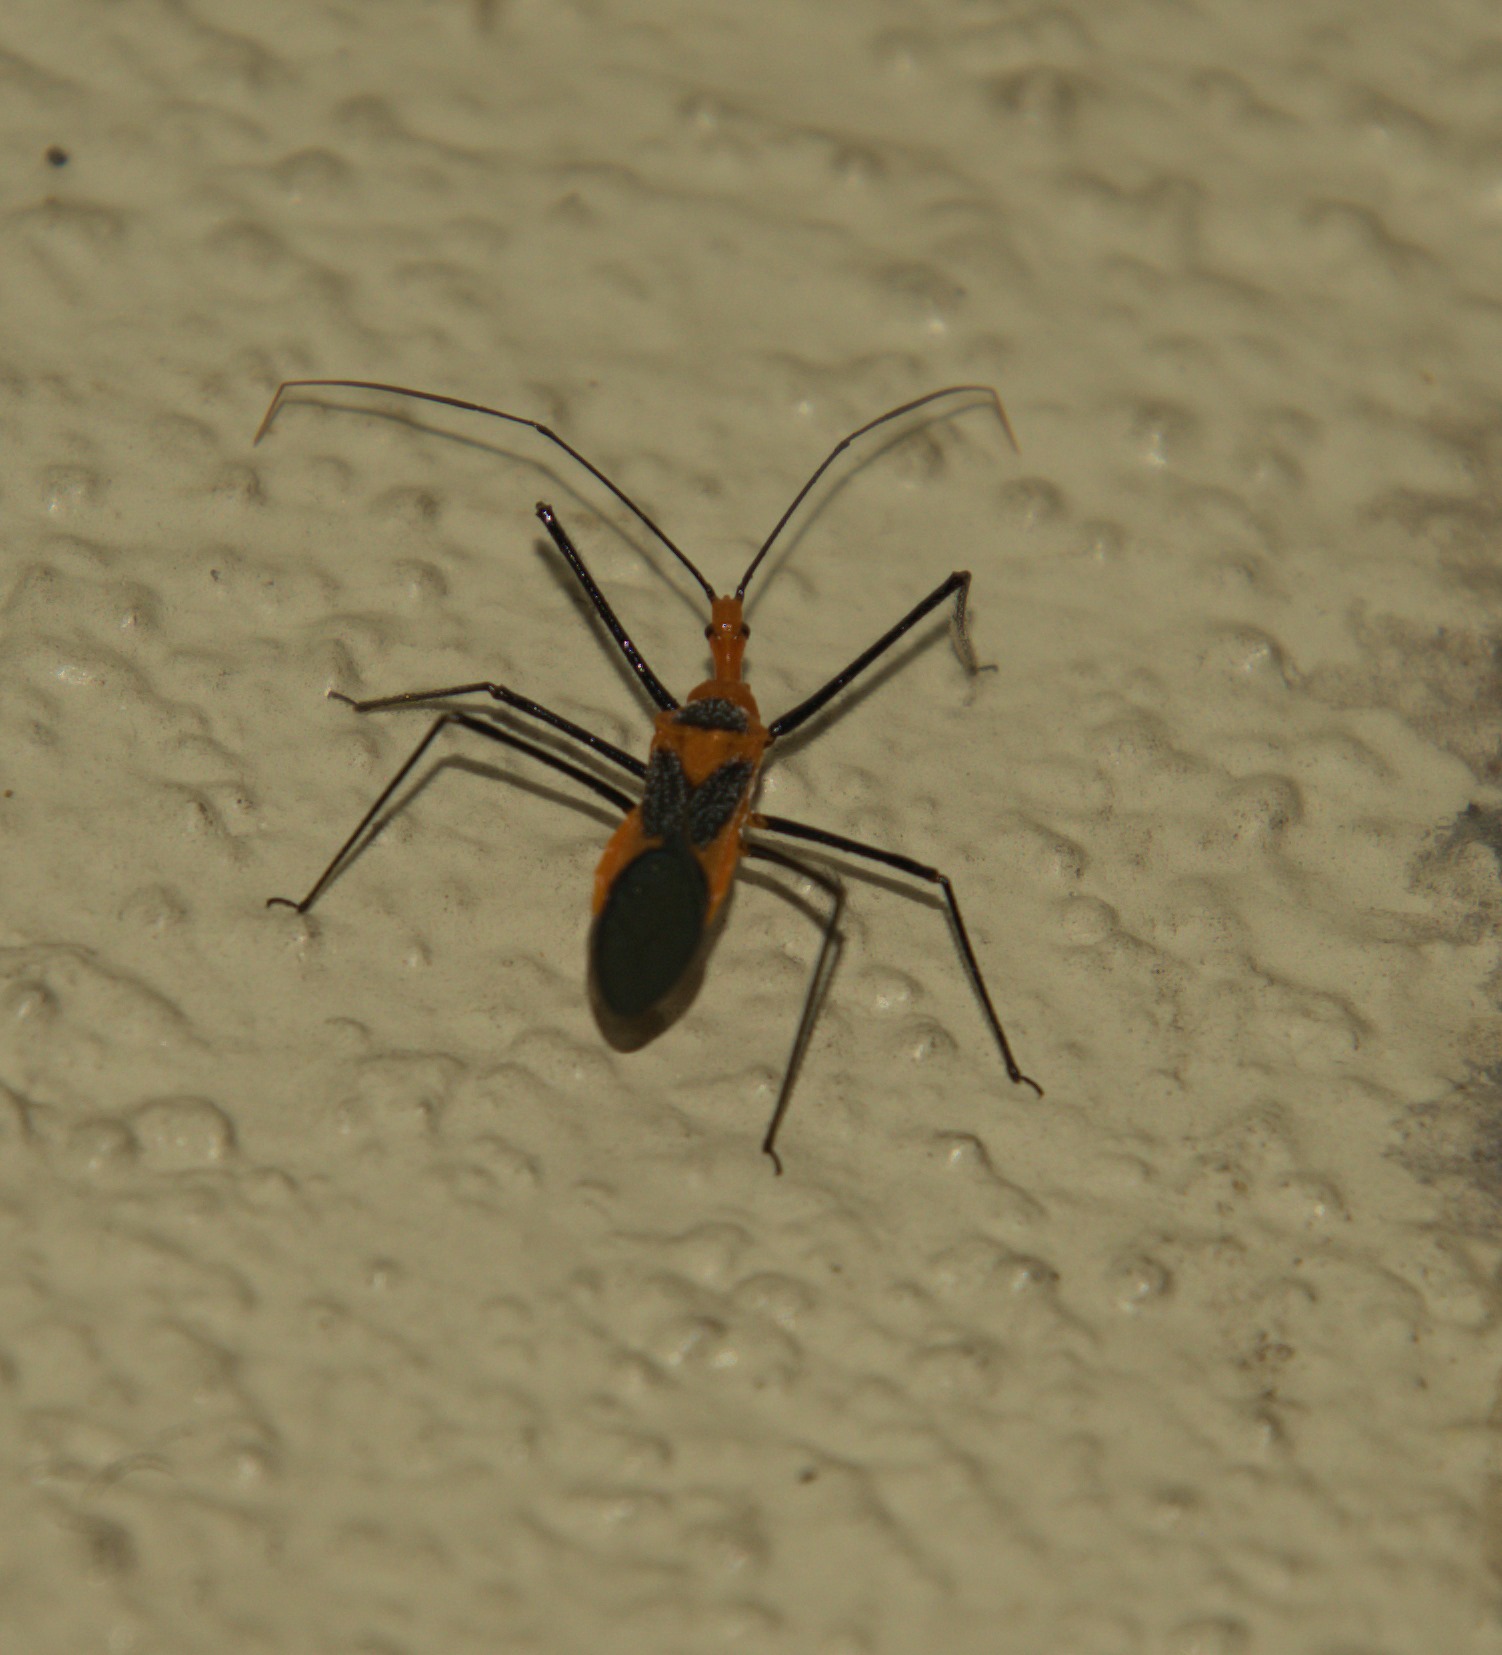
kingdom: Animalia
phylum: Arthropoda
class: Insecta
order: Hemiptera
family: Reduviidae
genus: Zelus
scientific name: Zelus longipes
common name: Milkweed assassin bug
